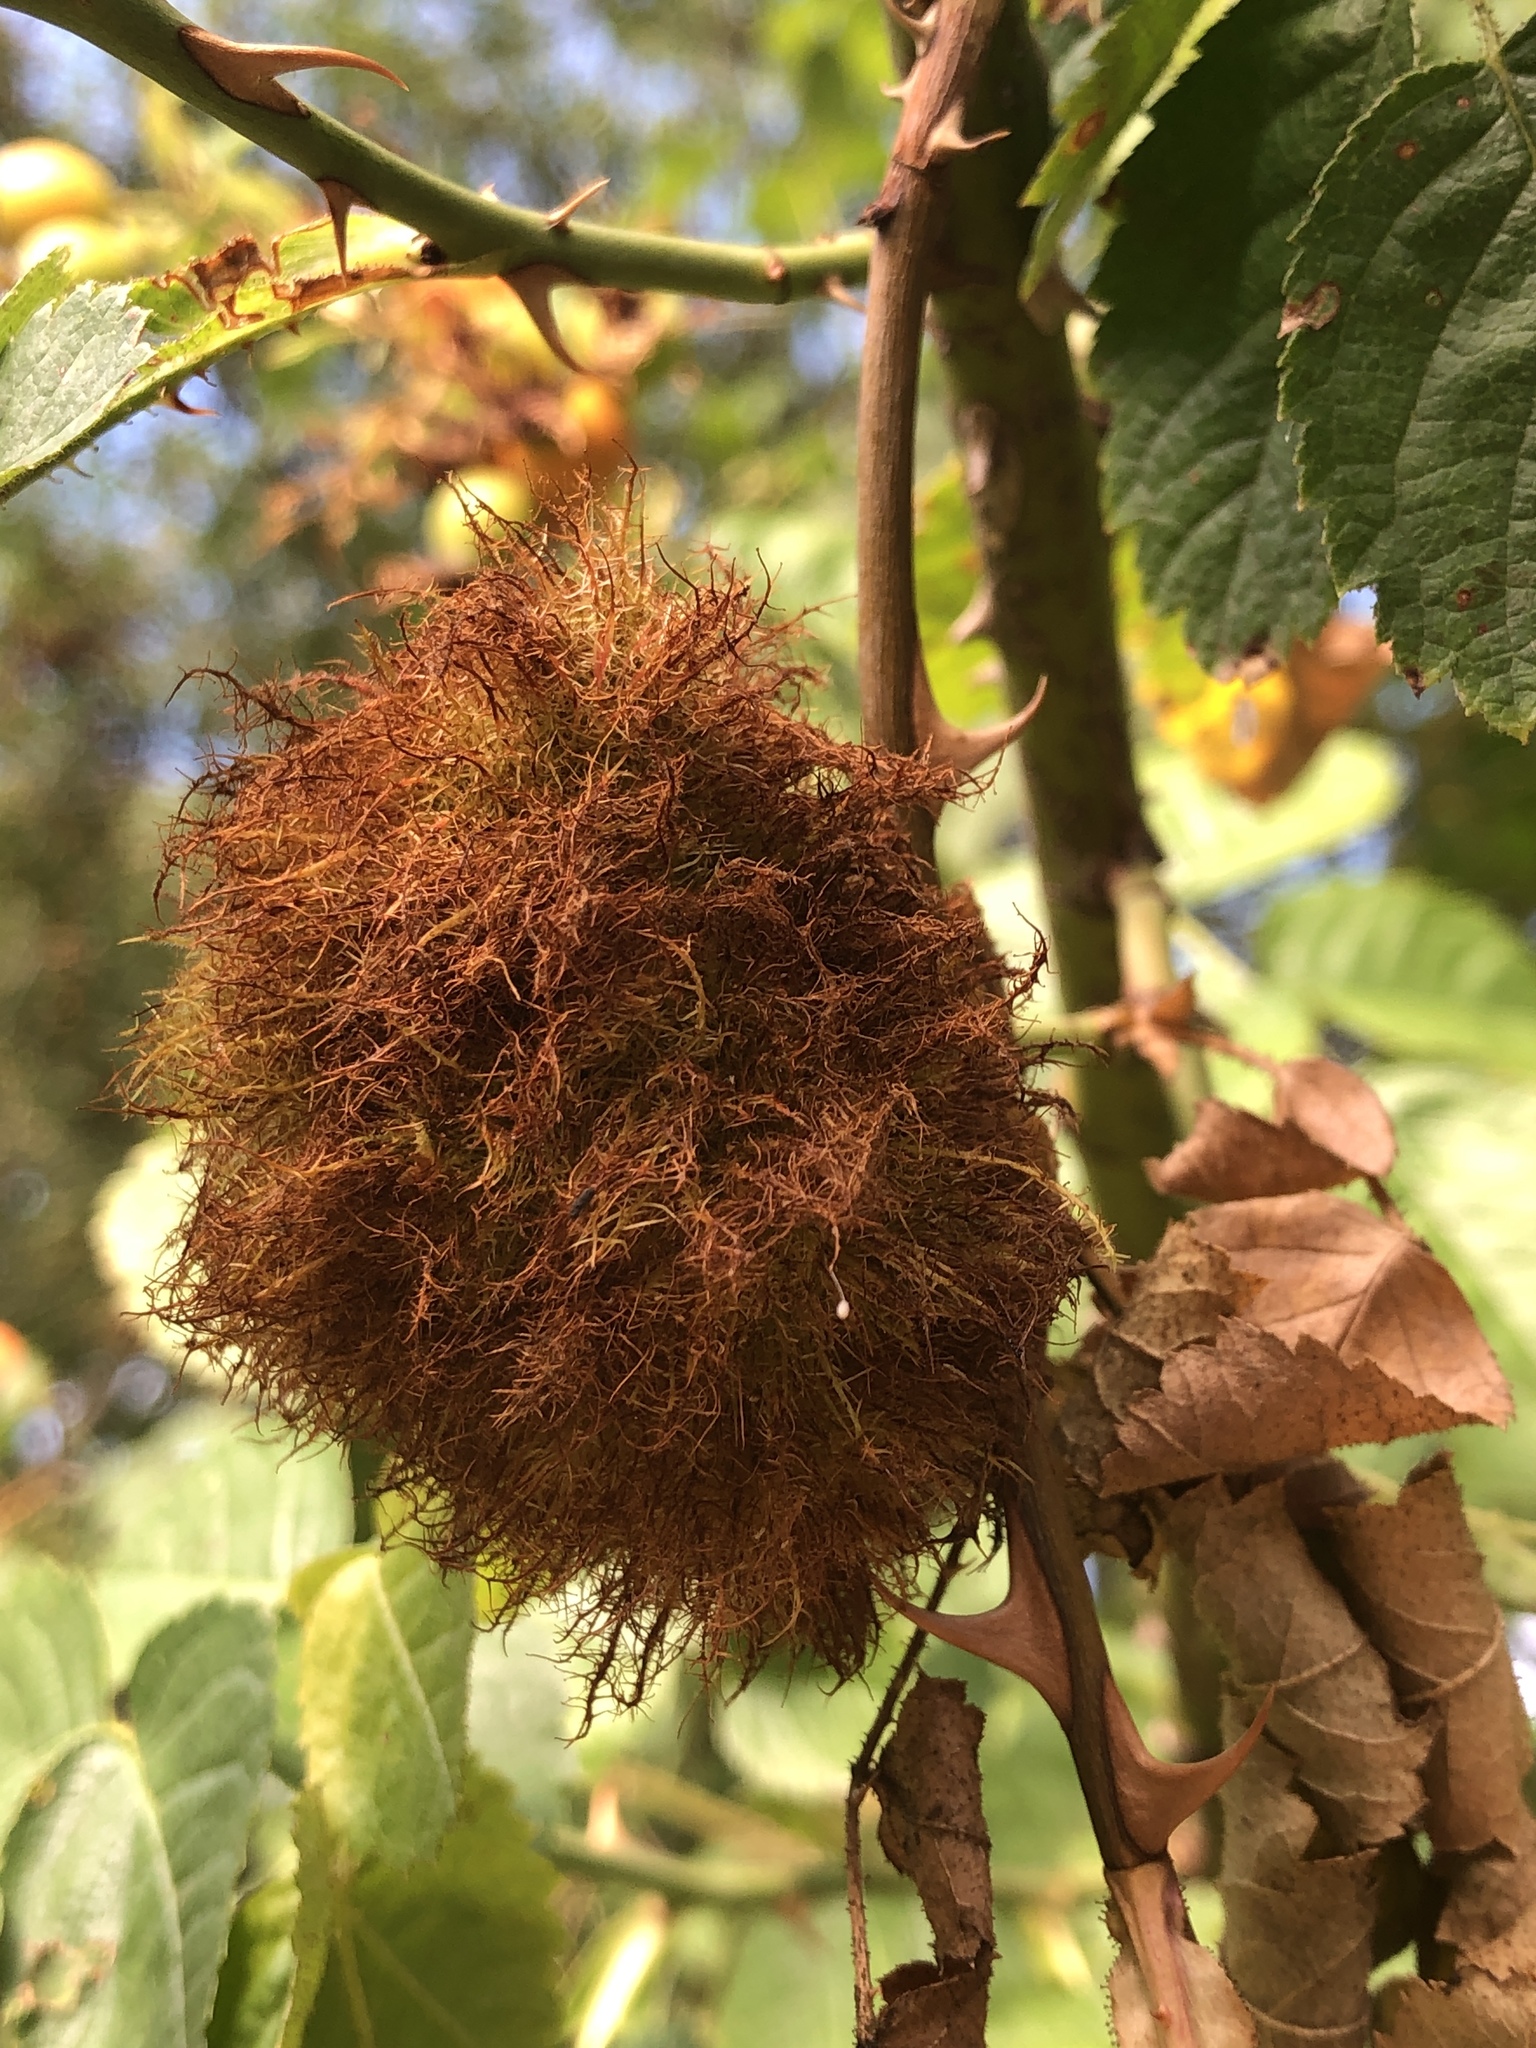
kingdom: Animalia
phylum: Arthropoda
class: Insecta
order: Hymenoptera
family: Cynipidae
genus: Diplolepis
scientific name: Diplolepis rosae
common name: Bedeguar gall
